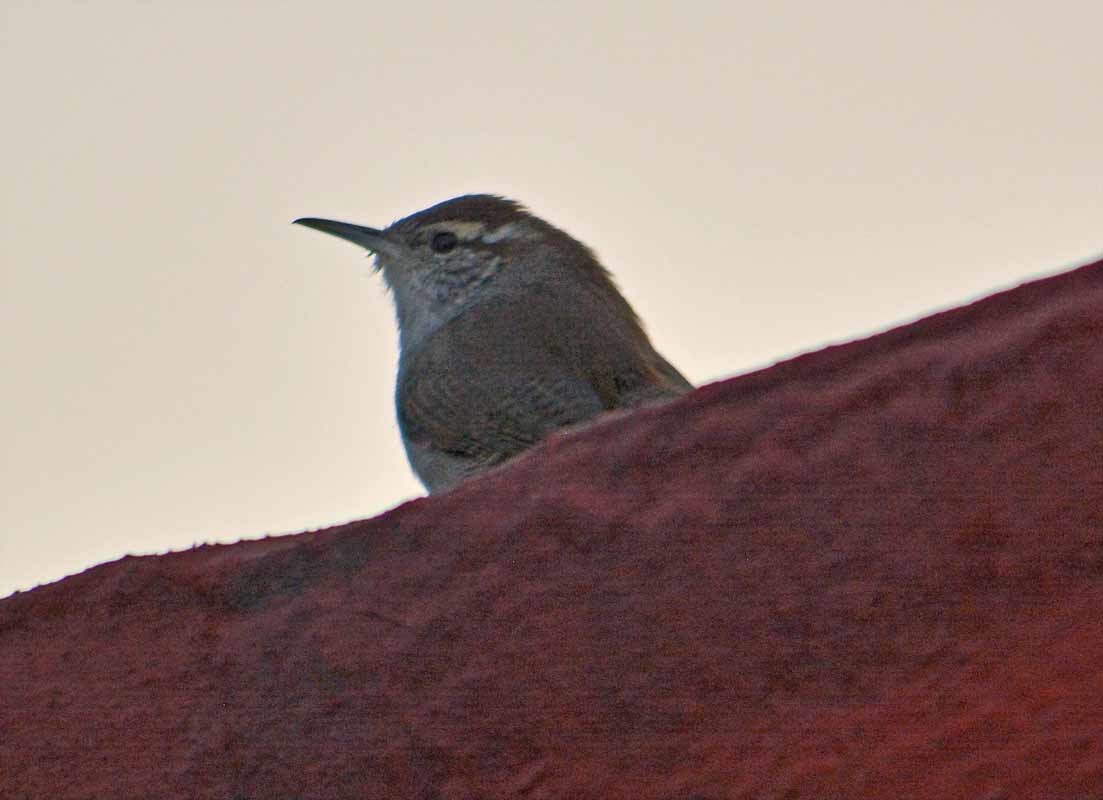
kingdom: Animalia
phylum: Chordata
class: Aves
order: Passeriformes
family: Troglodytidae
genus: Thryomanes
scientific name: Thryomanes bewickii
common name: Bewick's wren
